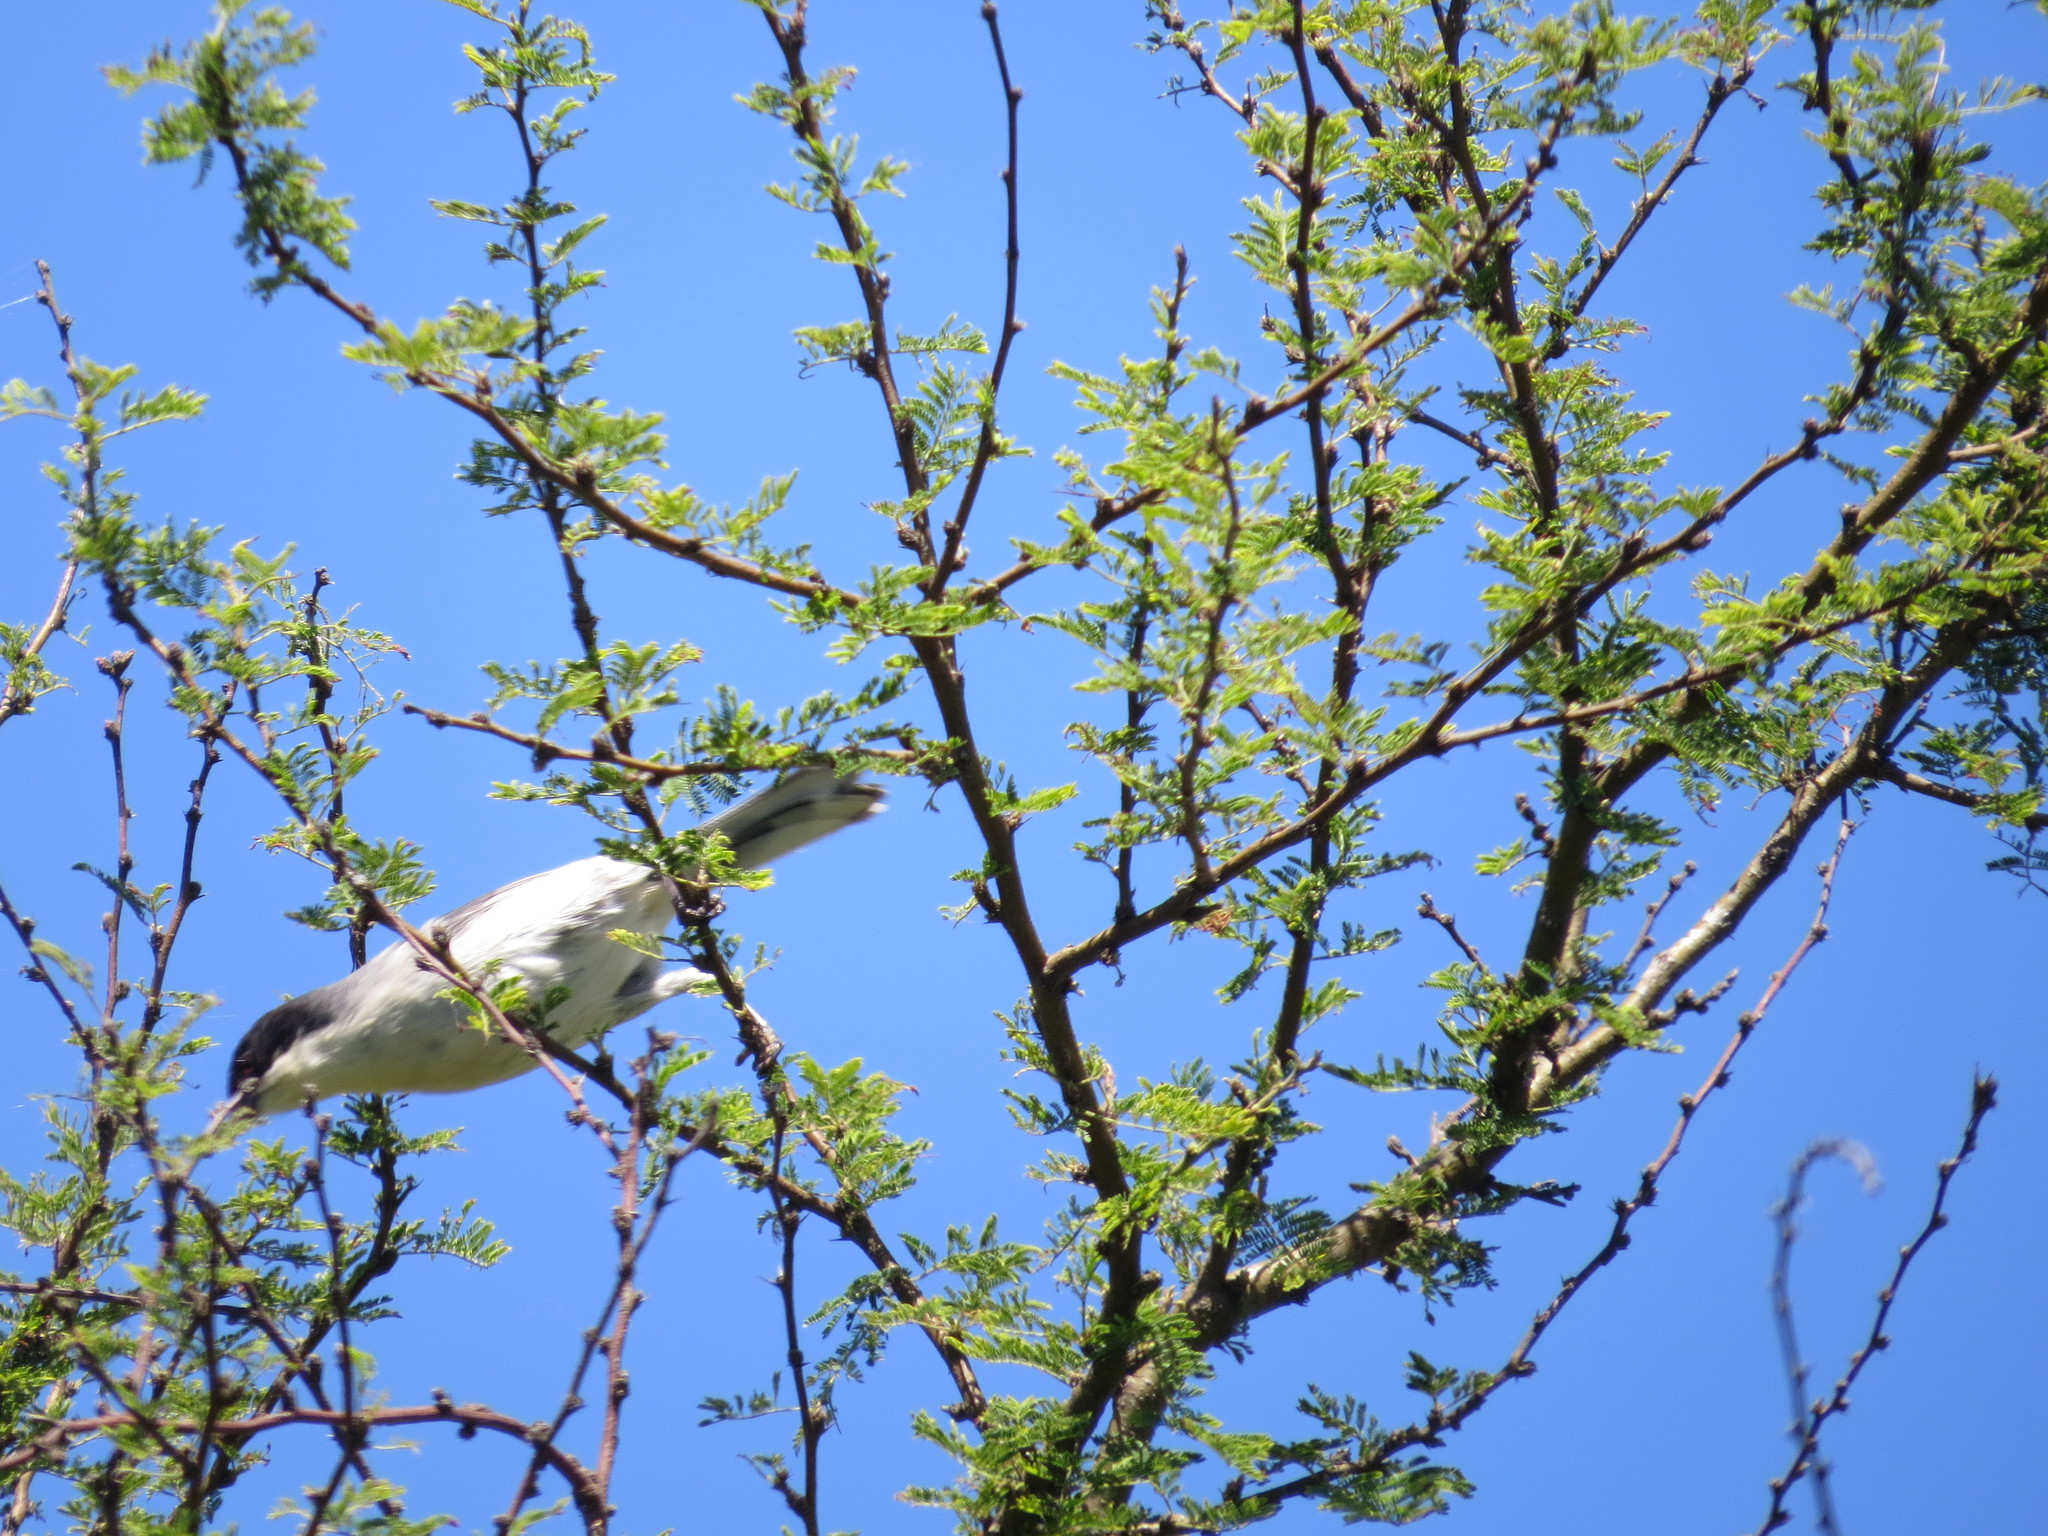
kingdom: Animalia
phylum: Chordata
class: Aves
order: Passeriformes
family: Thraupidae
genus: Microspingus
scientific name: Microspingus melanoleucus
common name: Black-capped warbling-finch
